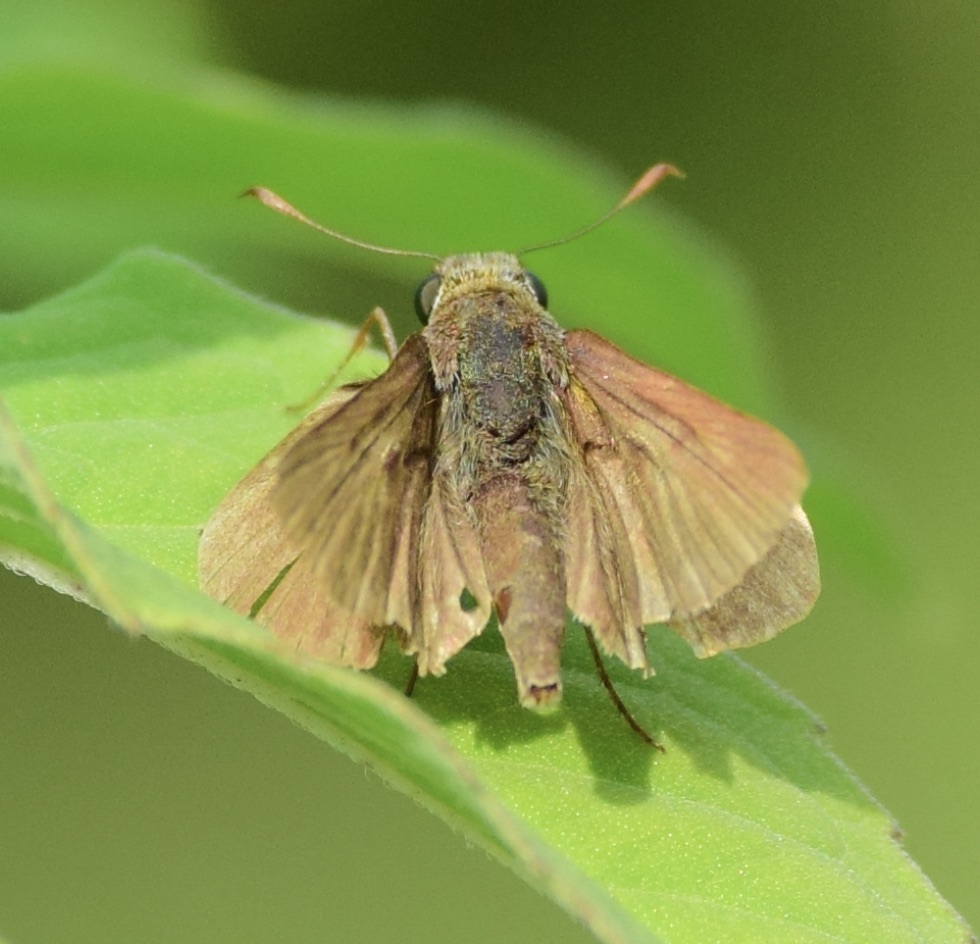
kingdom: Animalia
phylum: Arthropoda
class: Insecta
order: Lepidoptera
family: Hesperiidae
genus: Euphyes
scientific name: Euphyes vestris
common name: Dun skipper
